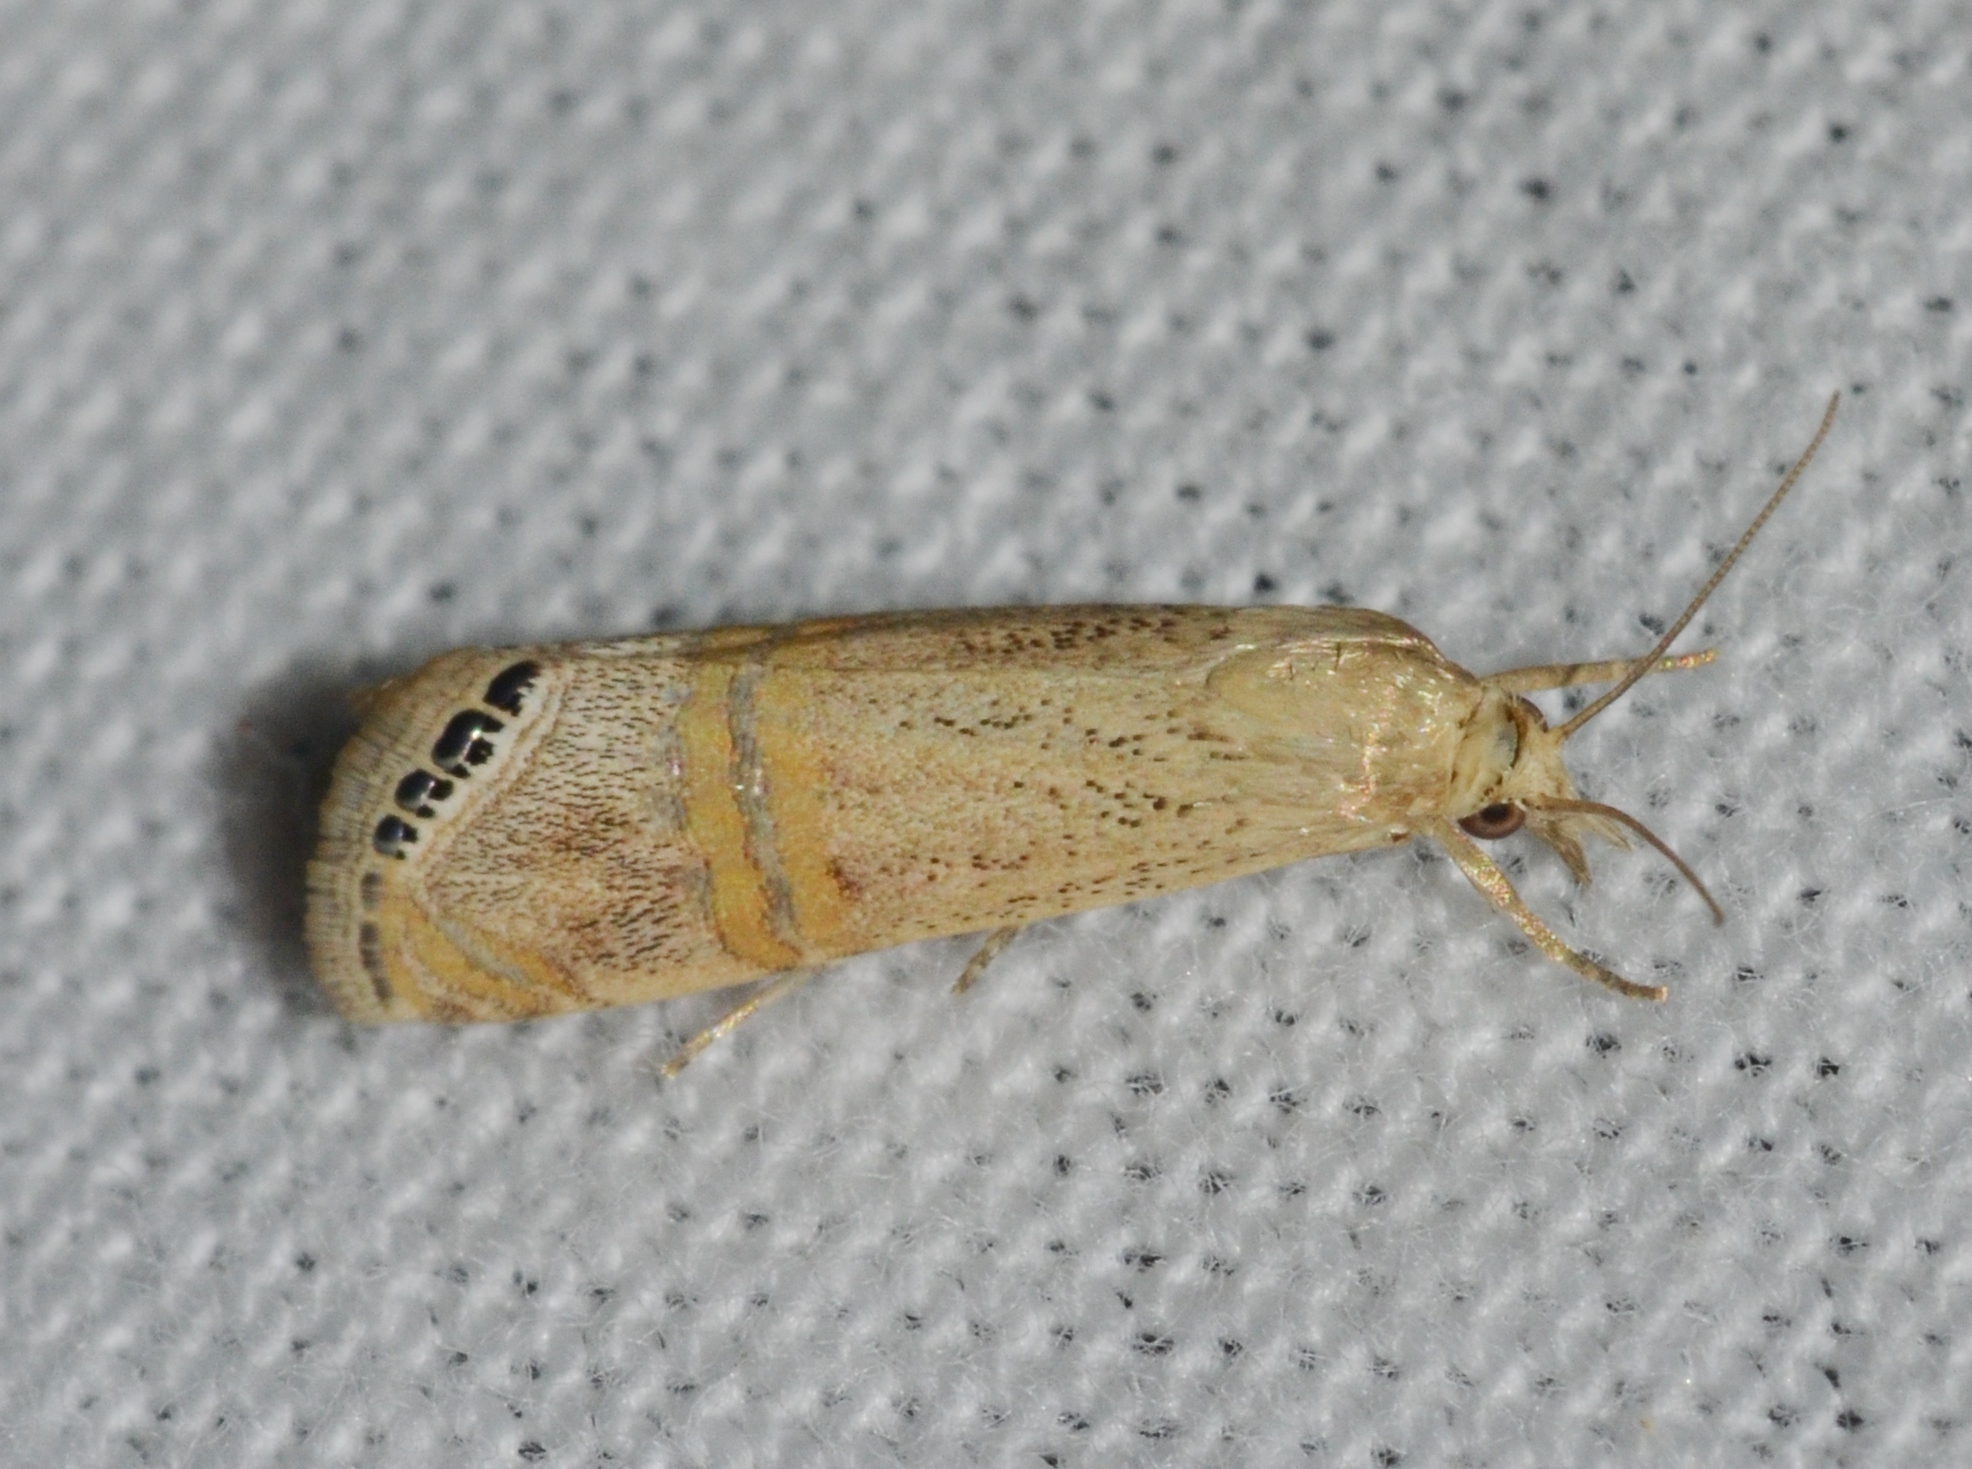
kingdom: Animalia
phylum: Arthropoda
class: Insecta
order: Lepidoptera
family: Crambidae
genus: Euchromius
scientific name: Euchromius ocellea
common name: Necklace veneer moth
